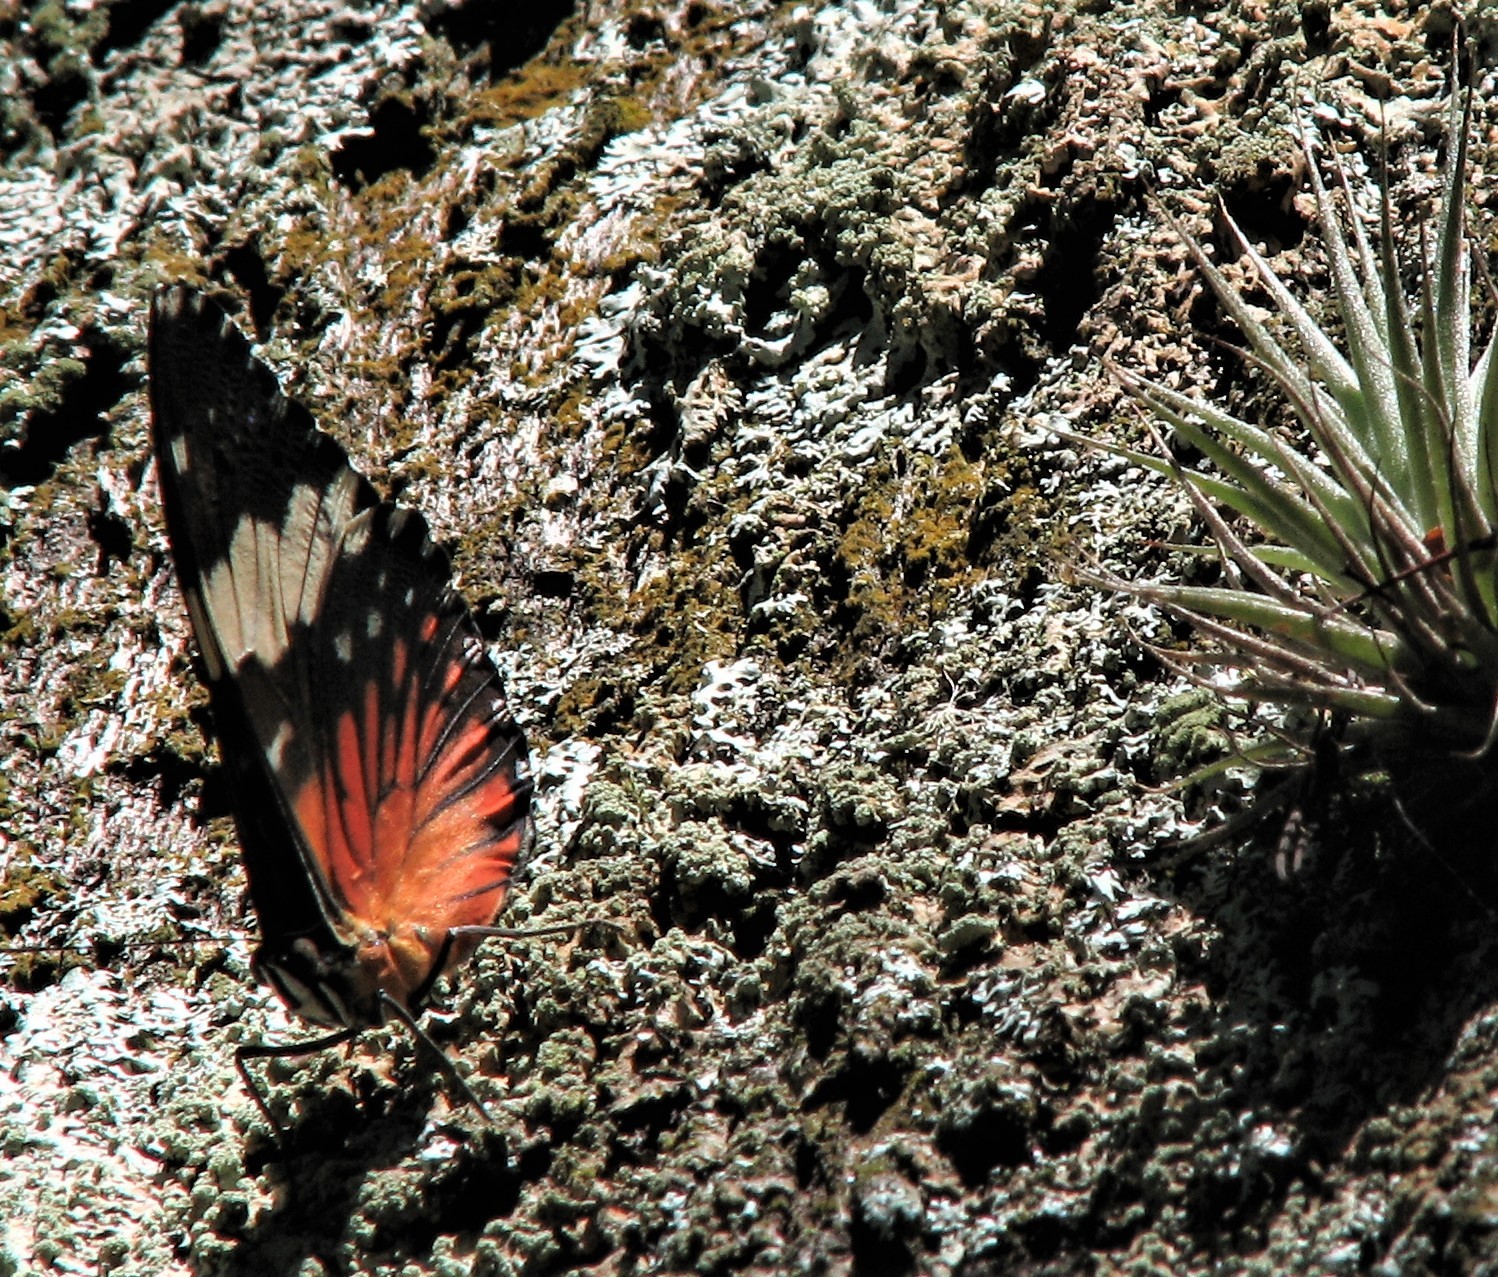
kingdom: Animalia
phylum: Arthropoda
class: Insecta
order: Lepidoptera
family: Nymphalidae
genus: Hamadryas
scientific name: Hamadryas amphinome
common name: Red cracker
